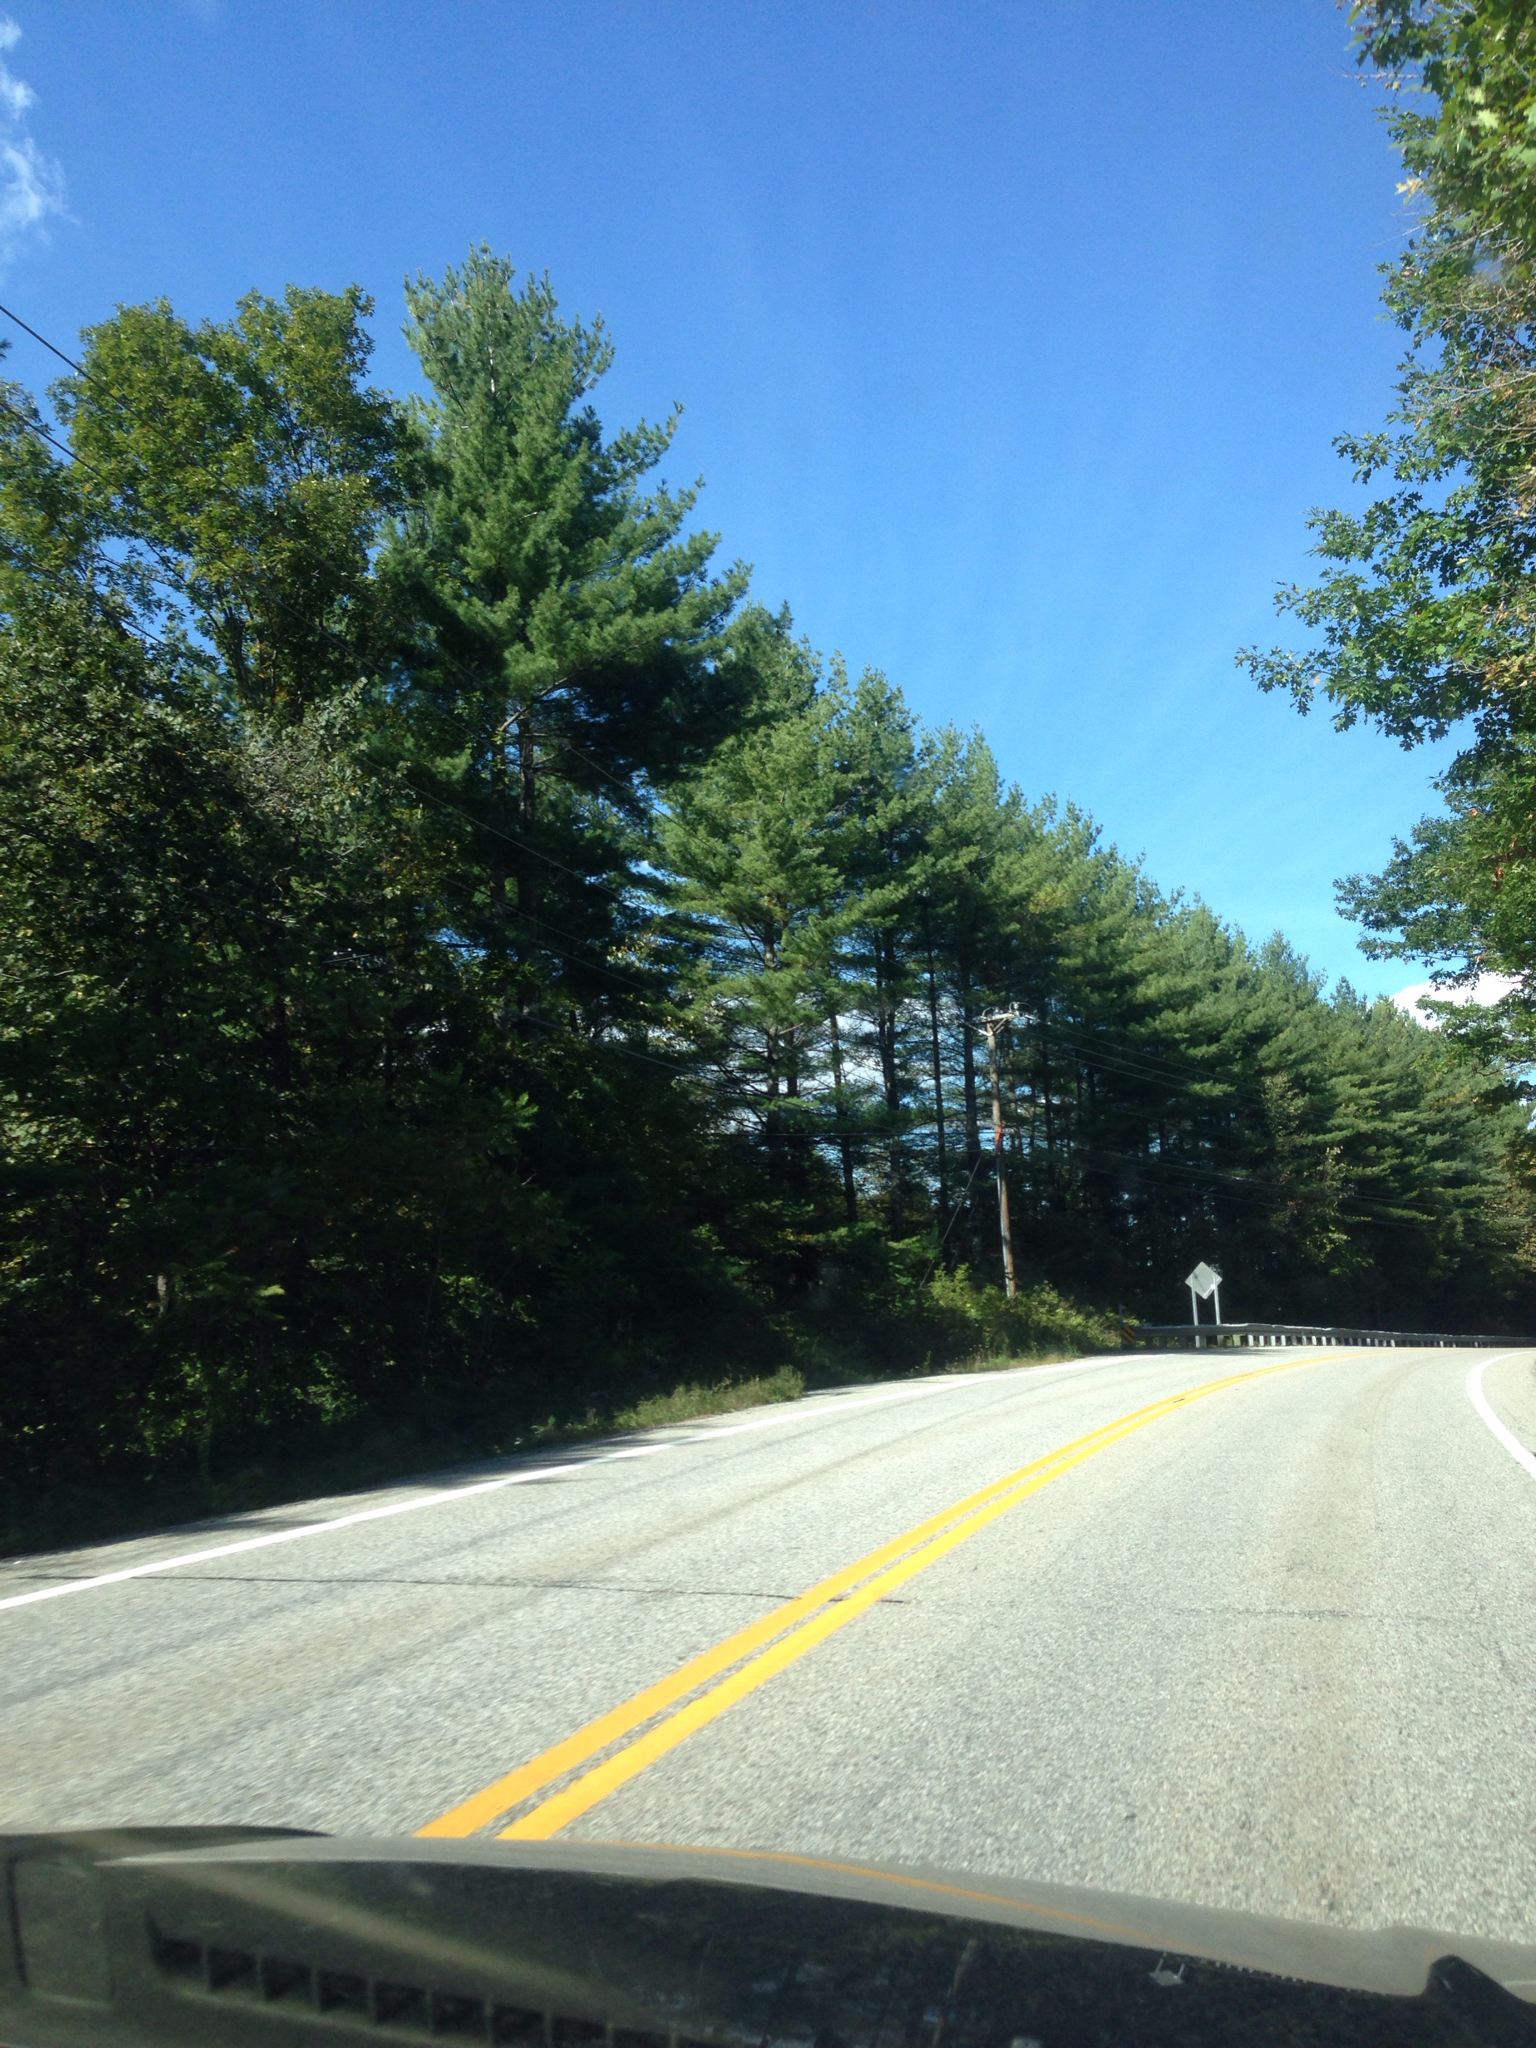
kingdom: Plantae
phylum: Tracheophyta
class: Pinopsida
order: Pinales
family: Pinaceae
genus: Pinus
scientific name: Pinus strobus
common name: Weymouth pine
